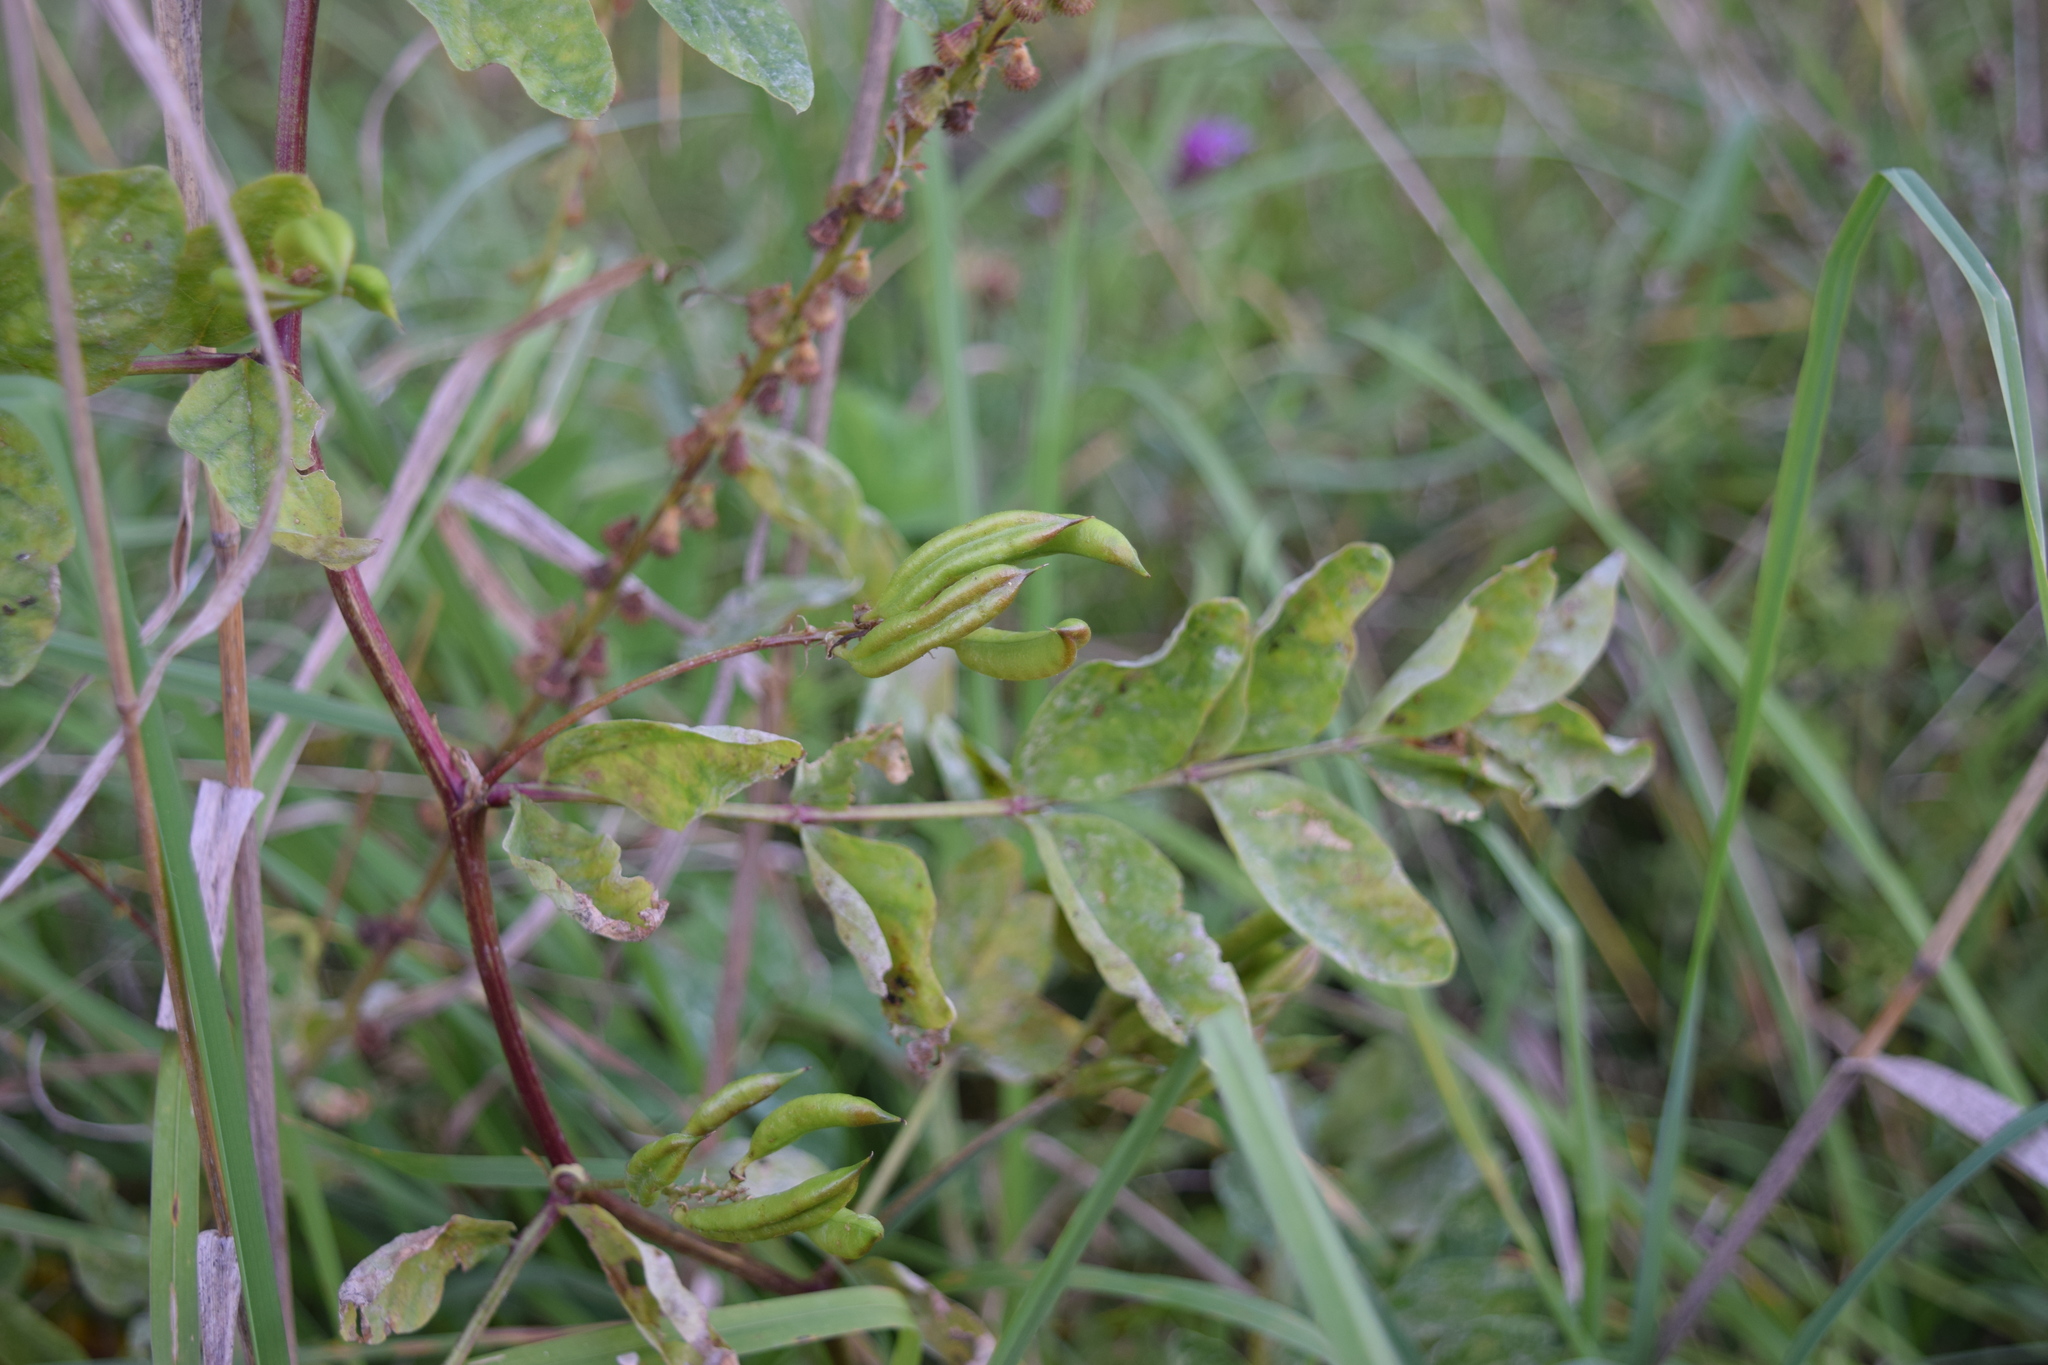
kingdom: Plantae
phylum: Tracheophyta
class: Magnoliopsida
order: Fabales
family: Fabaceae
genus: Astragalus
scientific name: Astragalus glycyphyllos
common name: Wild liquorice
